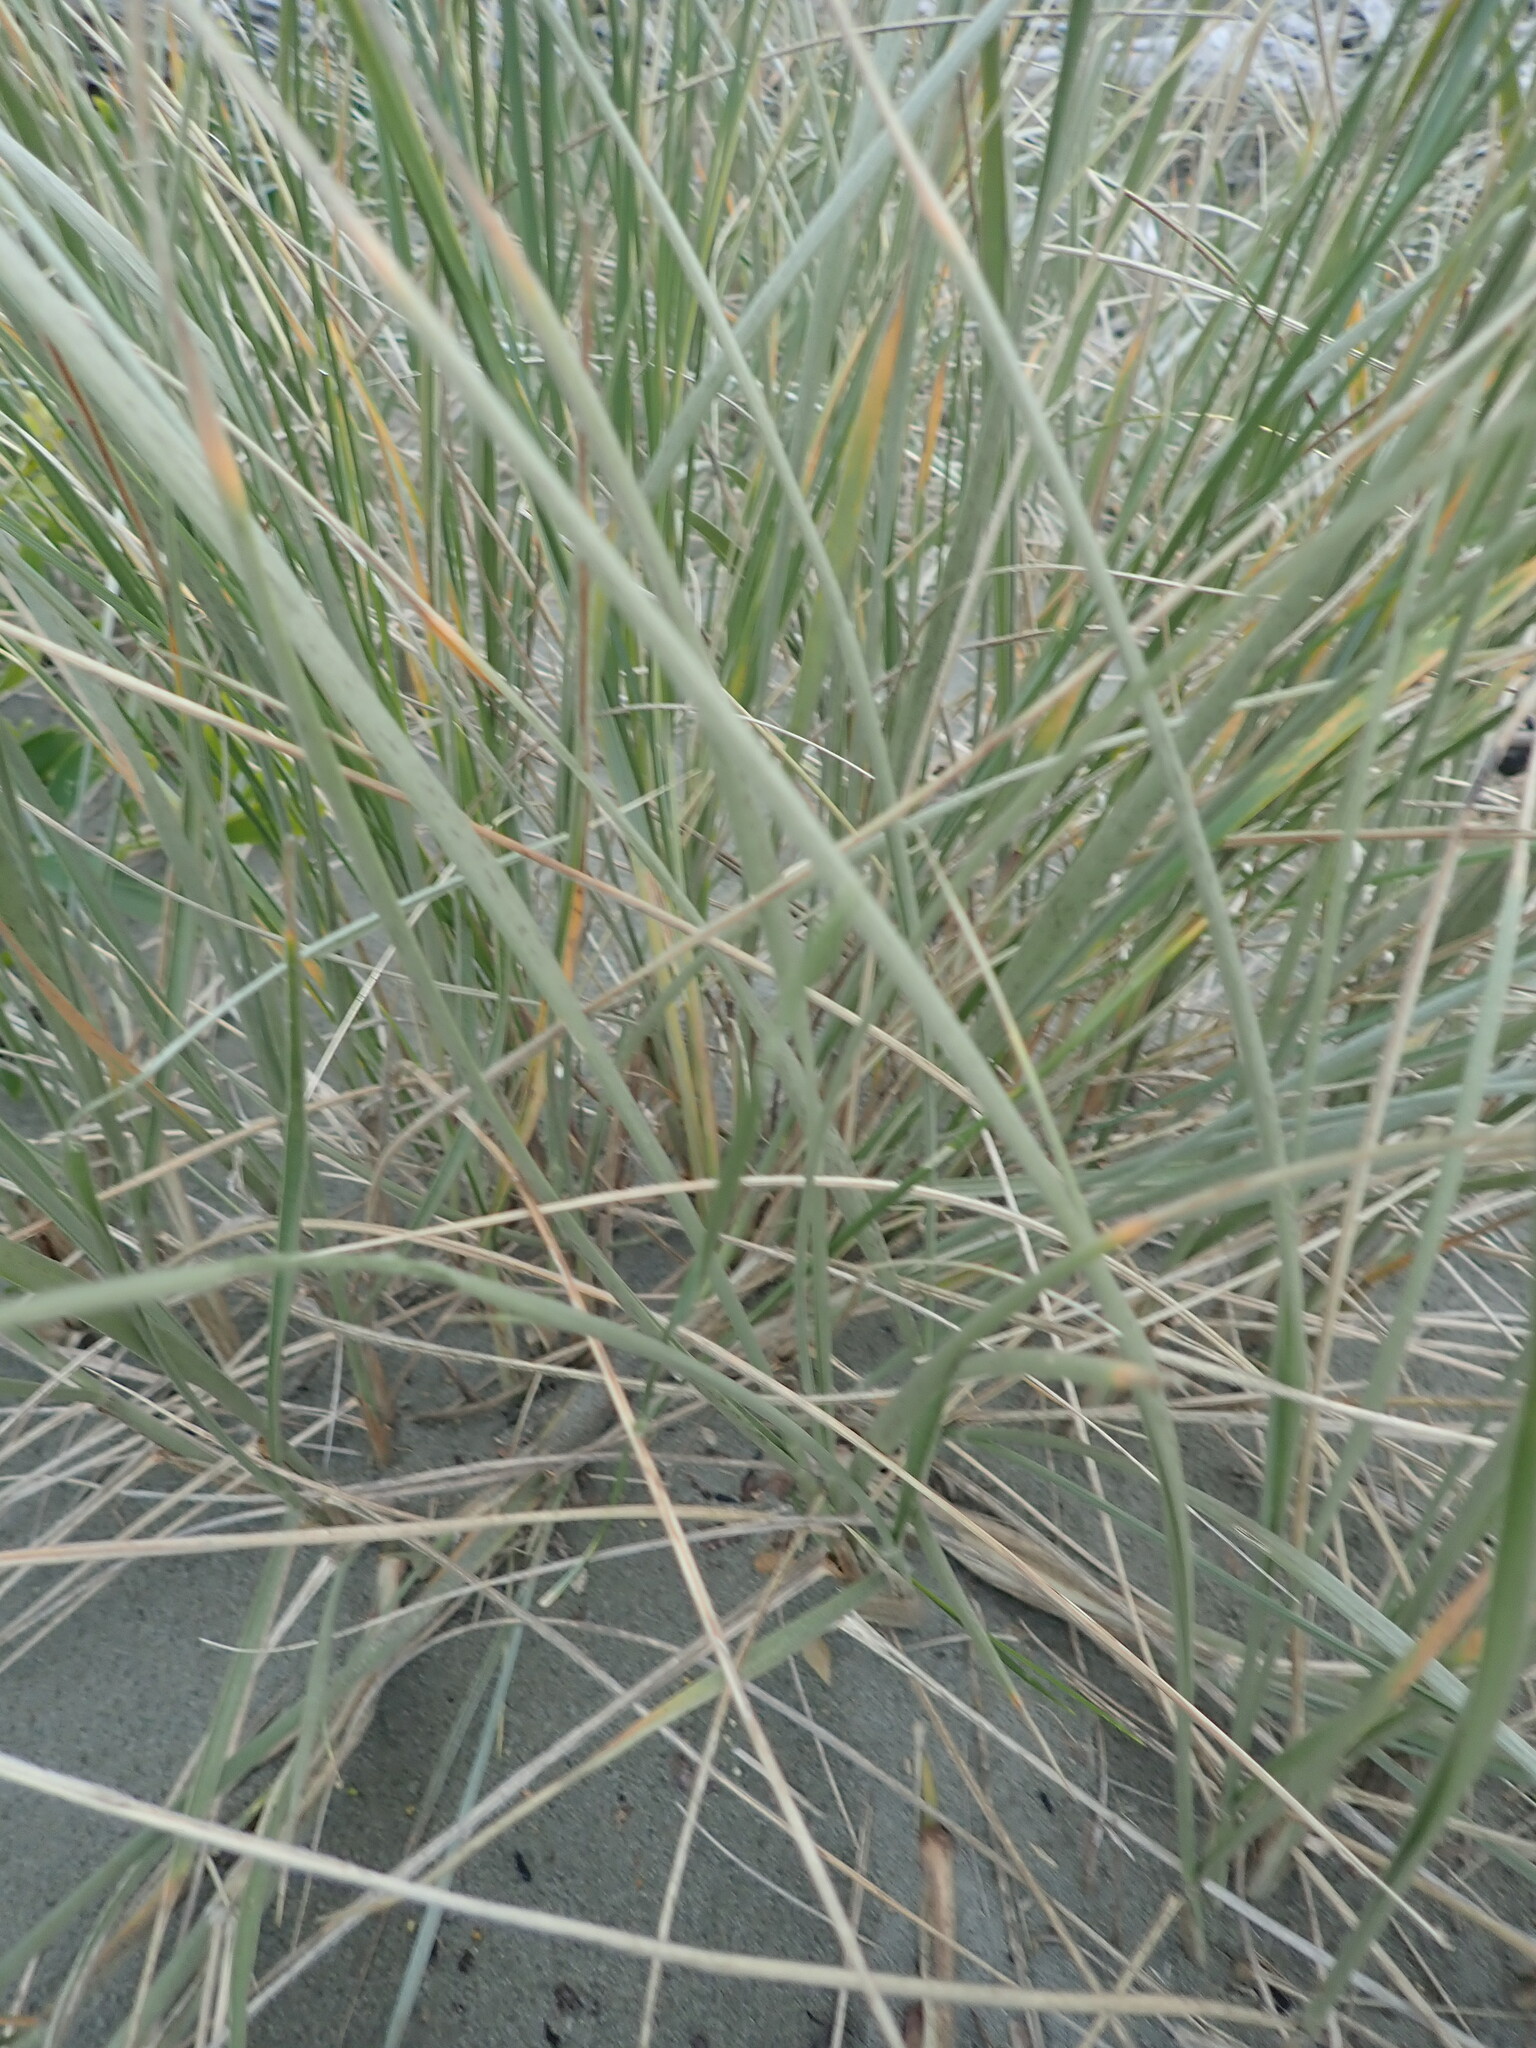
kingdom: Plantae
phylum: Tracheophyta
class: Liliopsida
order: Poales
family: Poaceae
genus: Spinifex
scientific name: Spinifex sericeus
